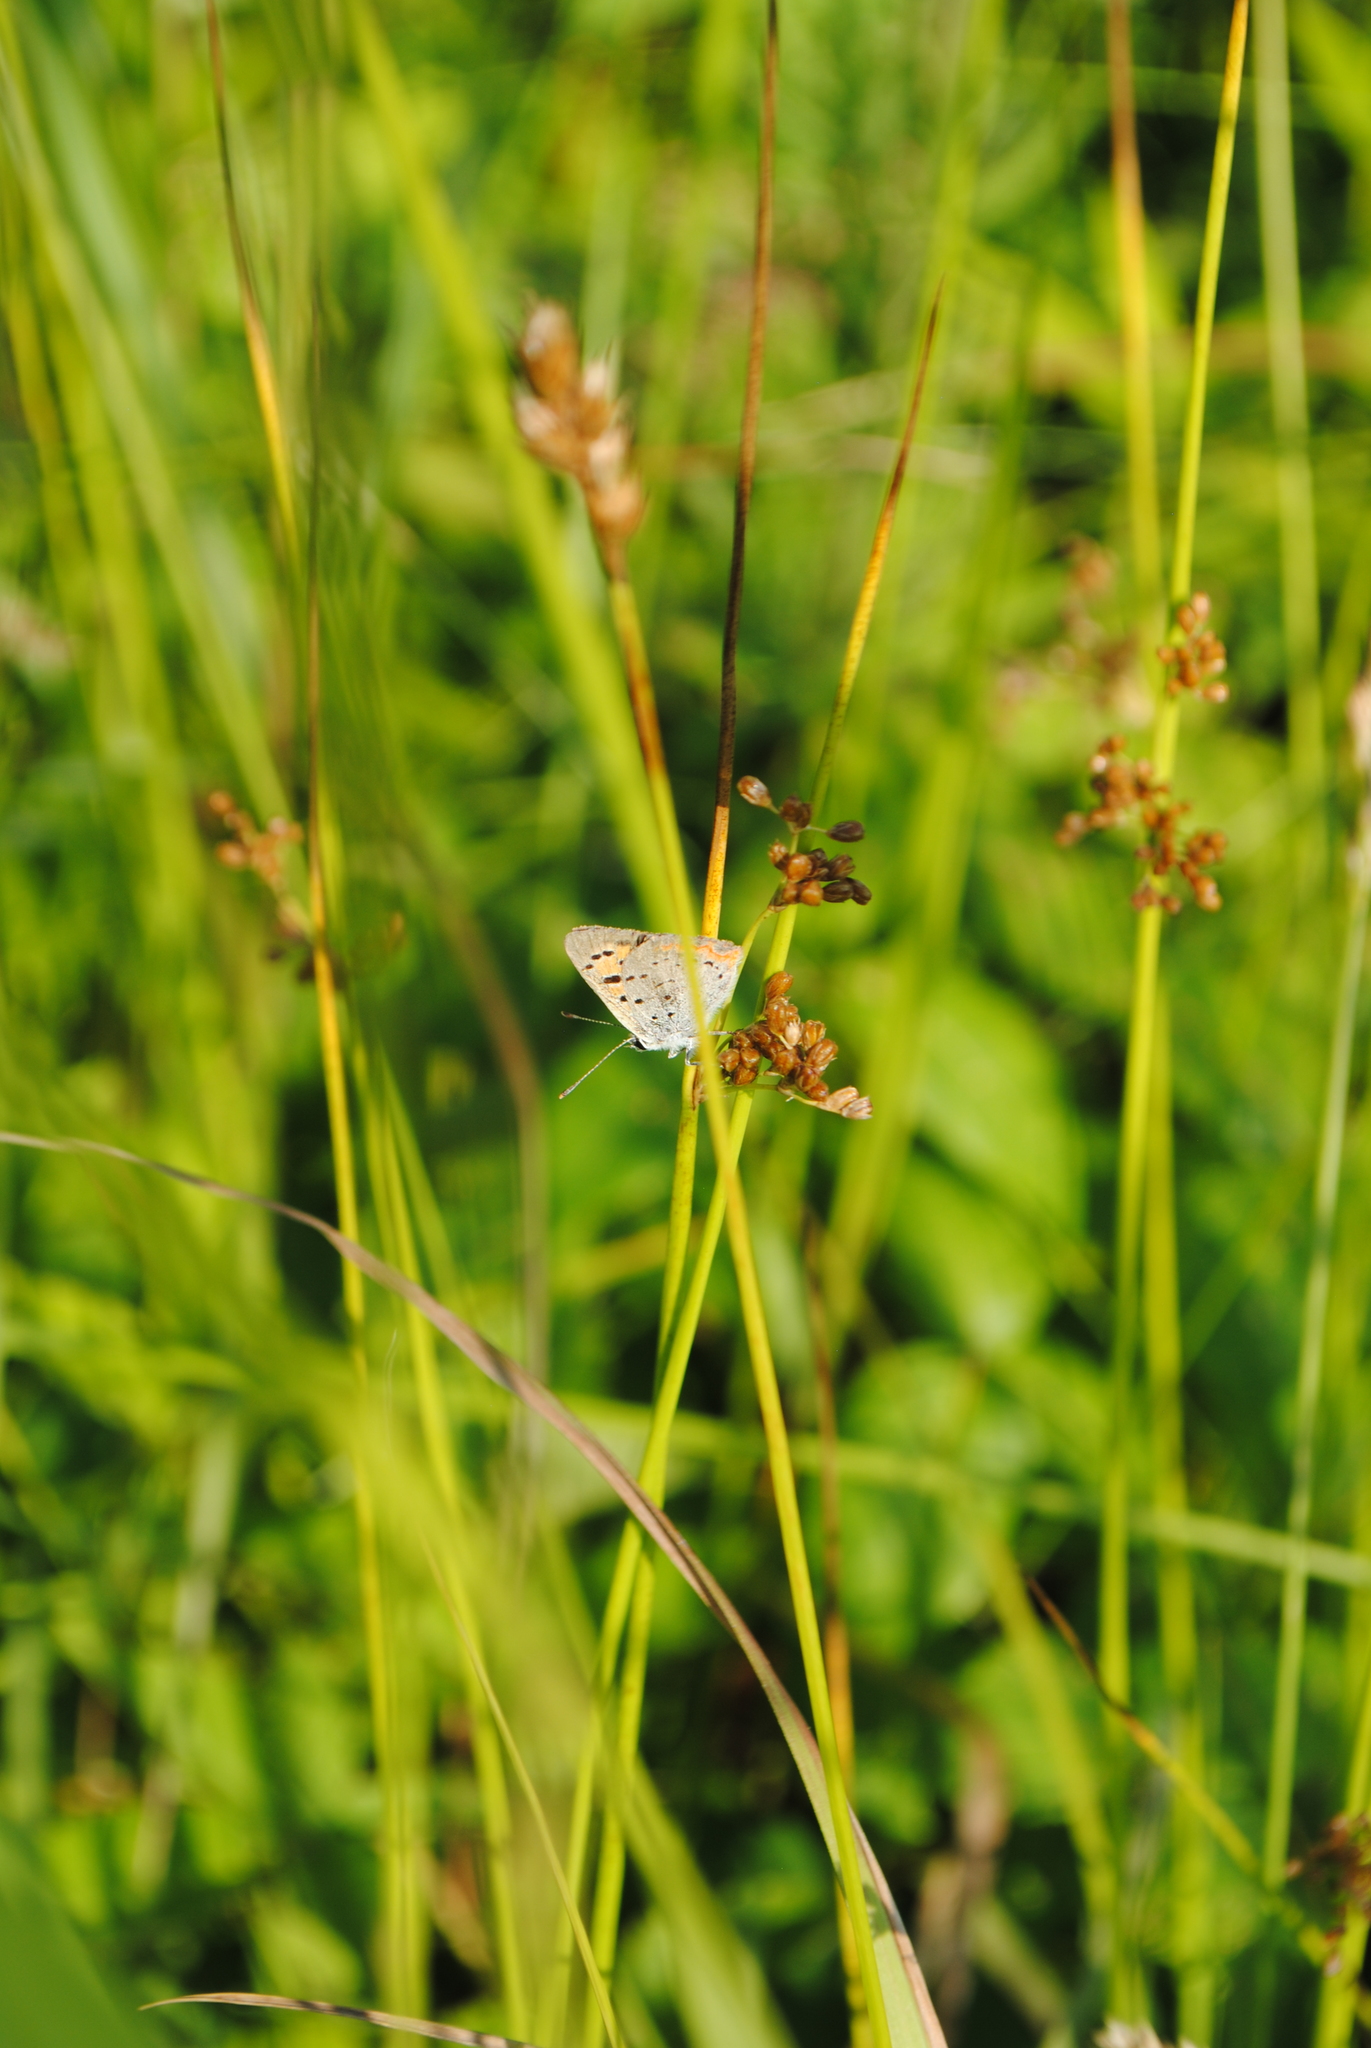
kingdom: Animalia
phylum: Arthropoda
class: Insecta
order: Lepidoptera
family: Lycaenidae
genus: Lycaena
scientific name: Lycaena hypophlaeas
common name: American copper
